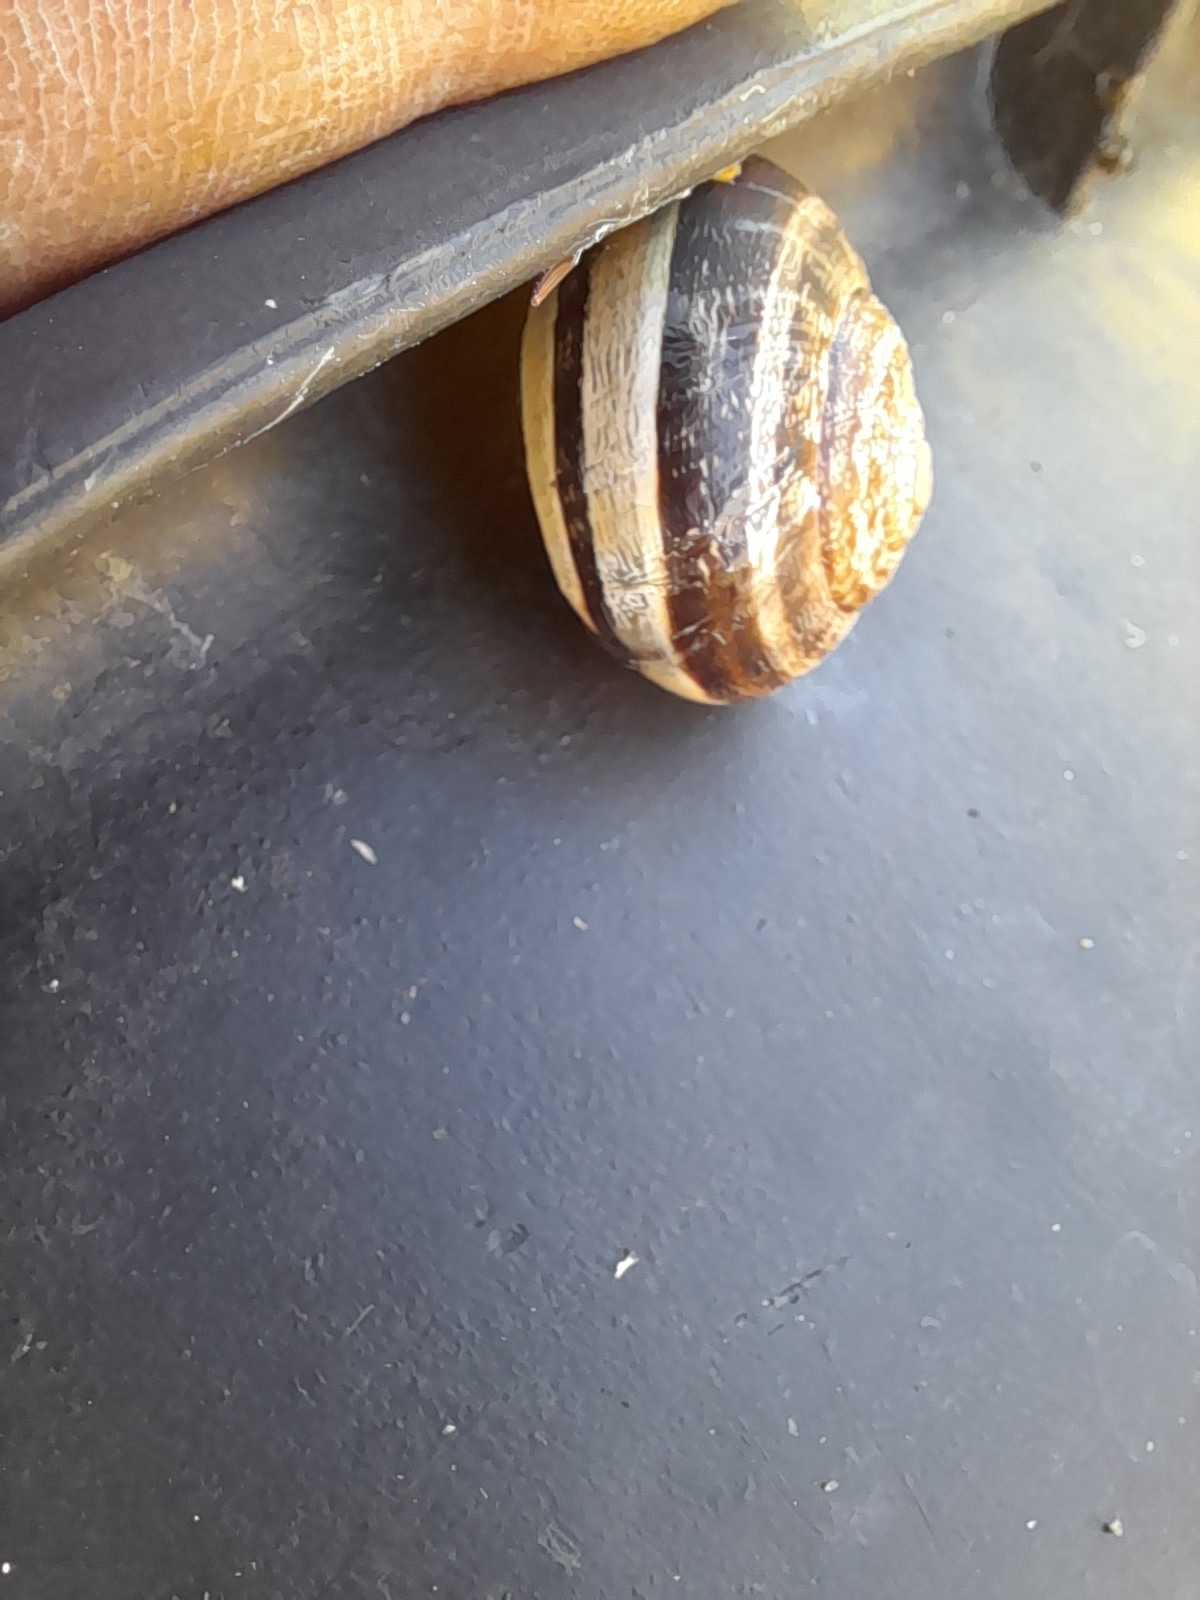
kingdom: Animalia
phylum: Mollusca
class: Gastropoda
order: Stylommatophora
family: Helicidae
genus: Eobania
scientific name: Eobania vermiculata
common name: Chocolateband snail
